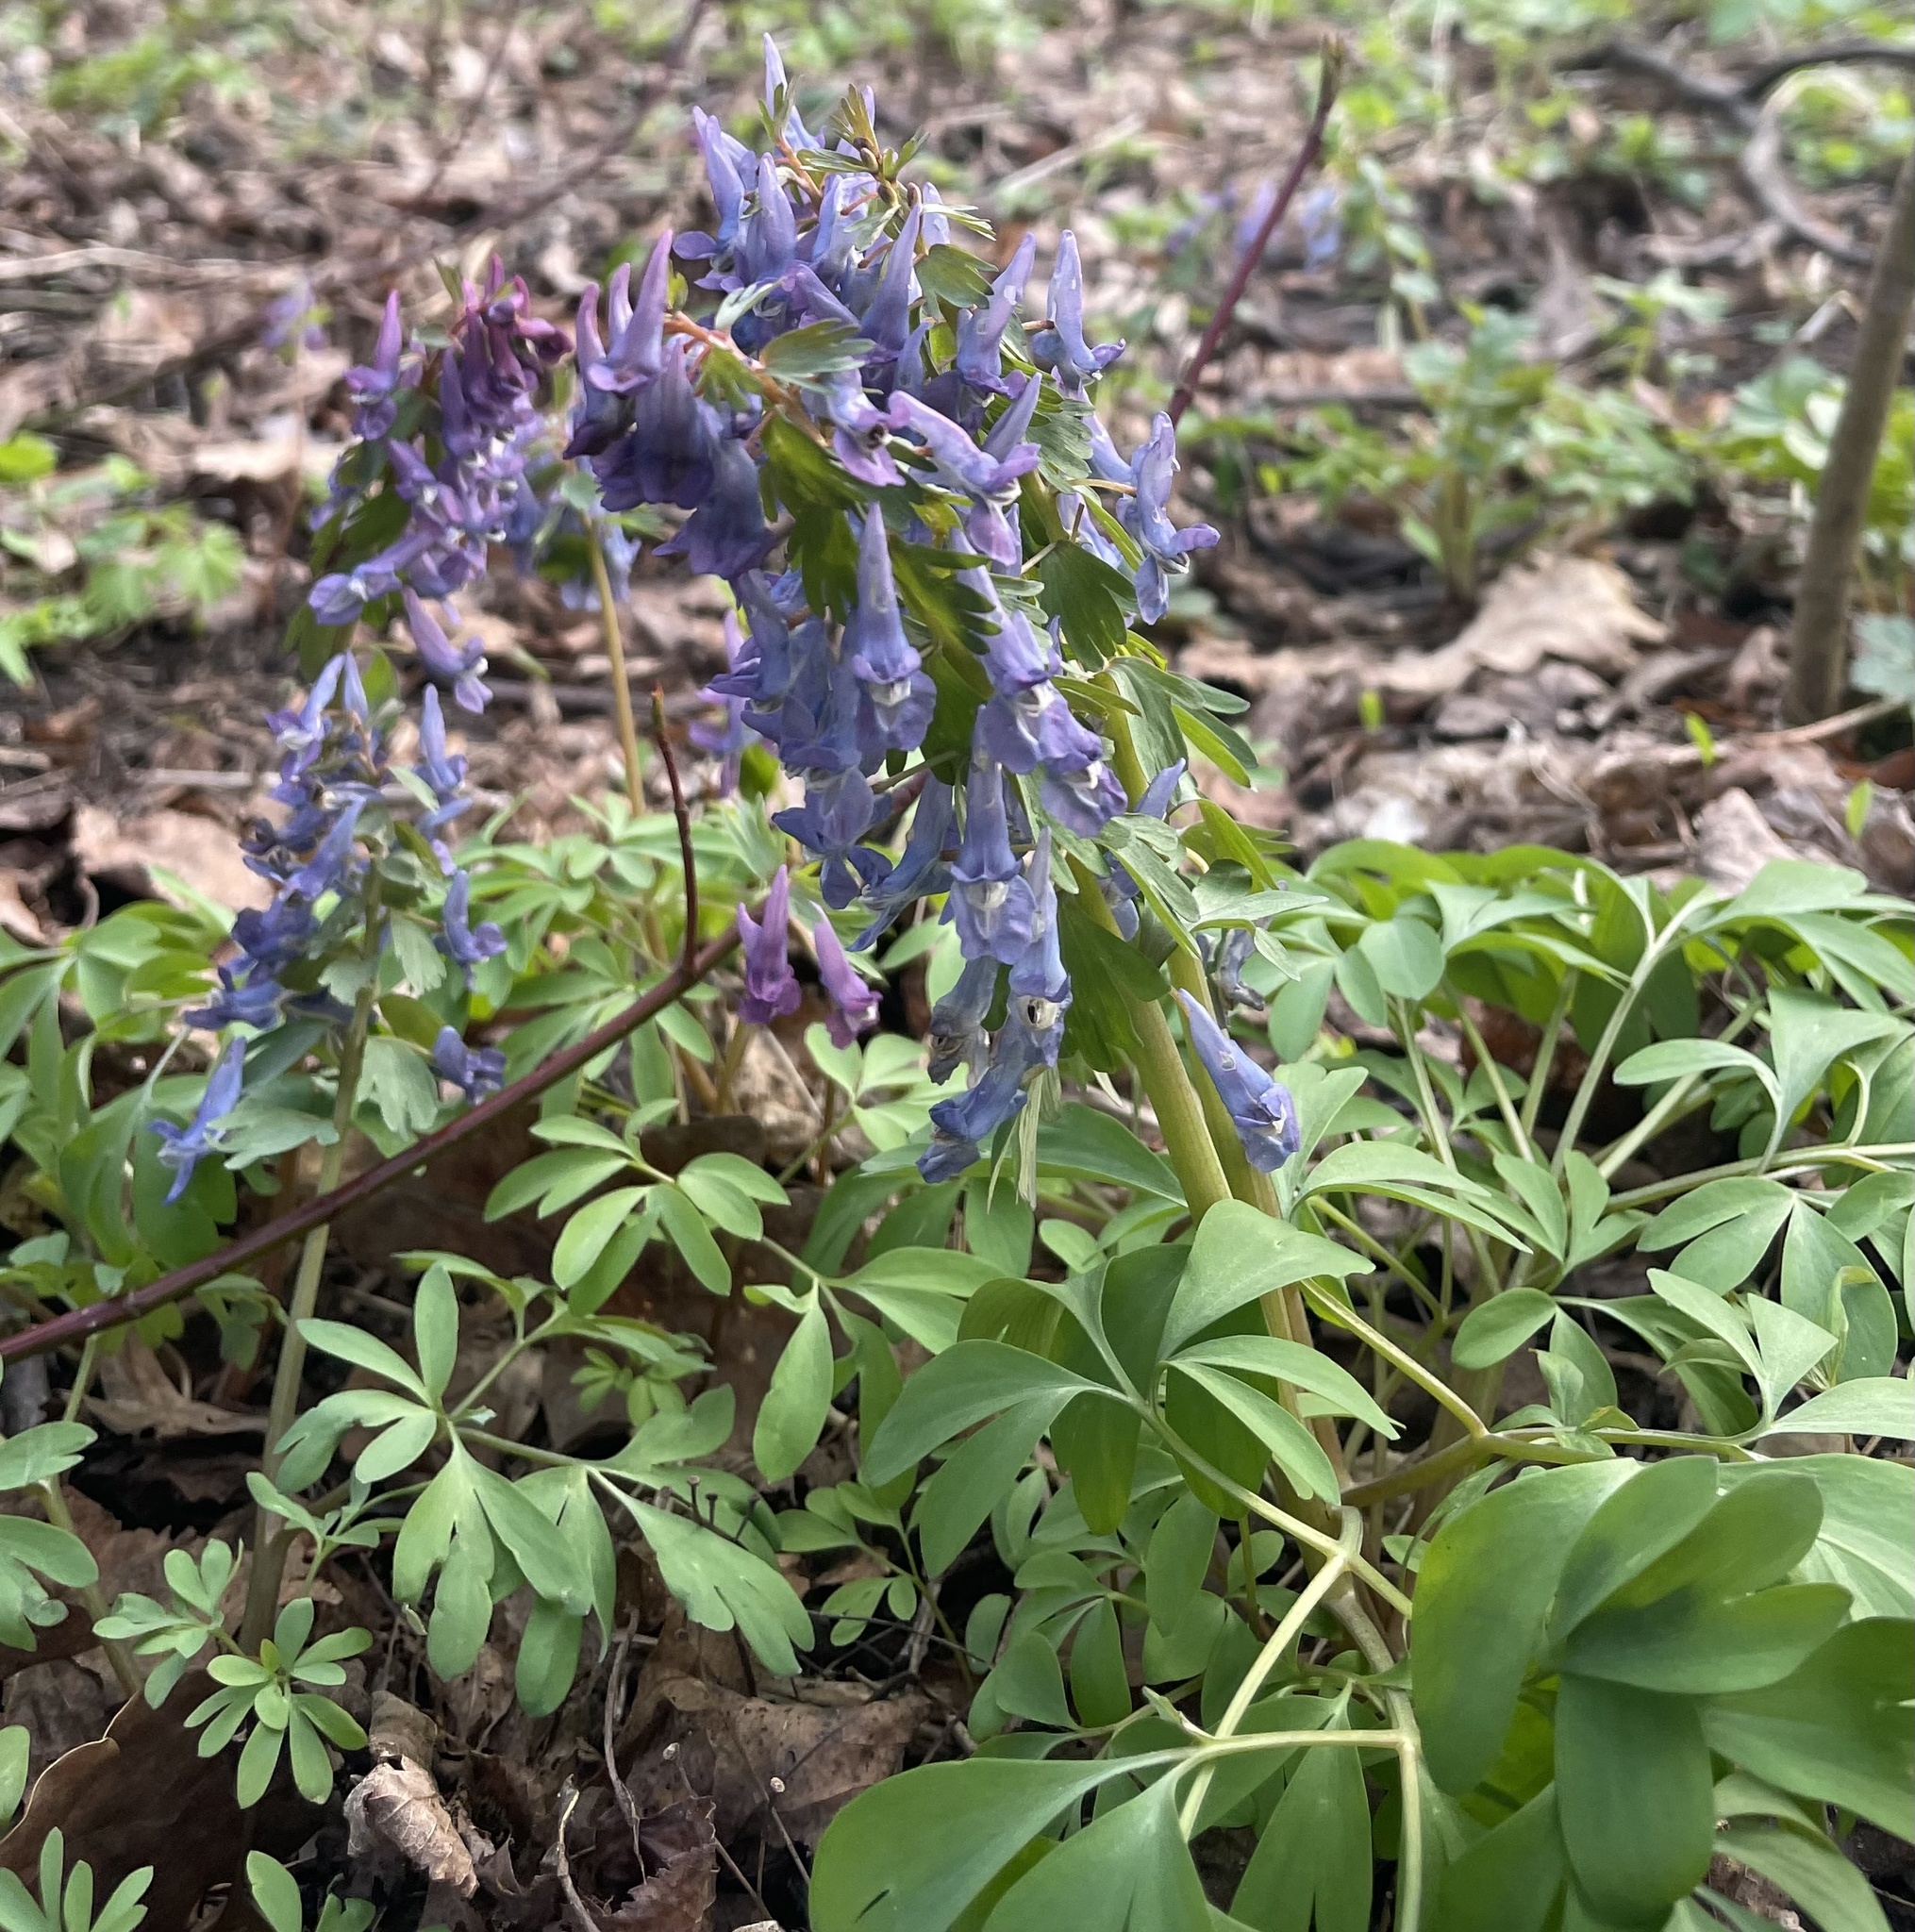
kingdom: Plantae
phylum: Tracheophyta
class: Magnoliopsida
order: Ranunculales
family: Papaveraceae
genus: Corydalis
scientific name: Corydalis solida
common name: Bird-in-a-bush
